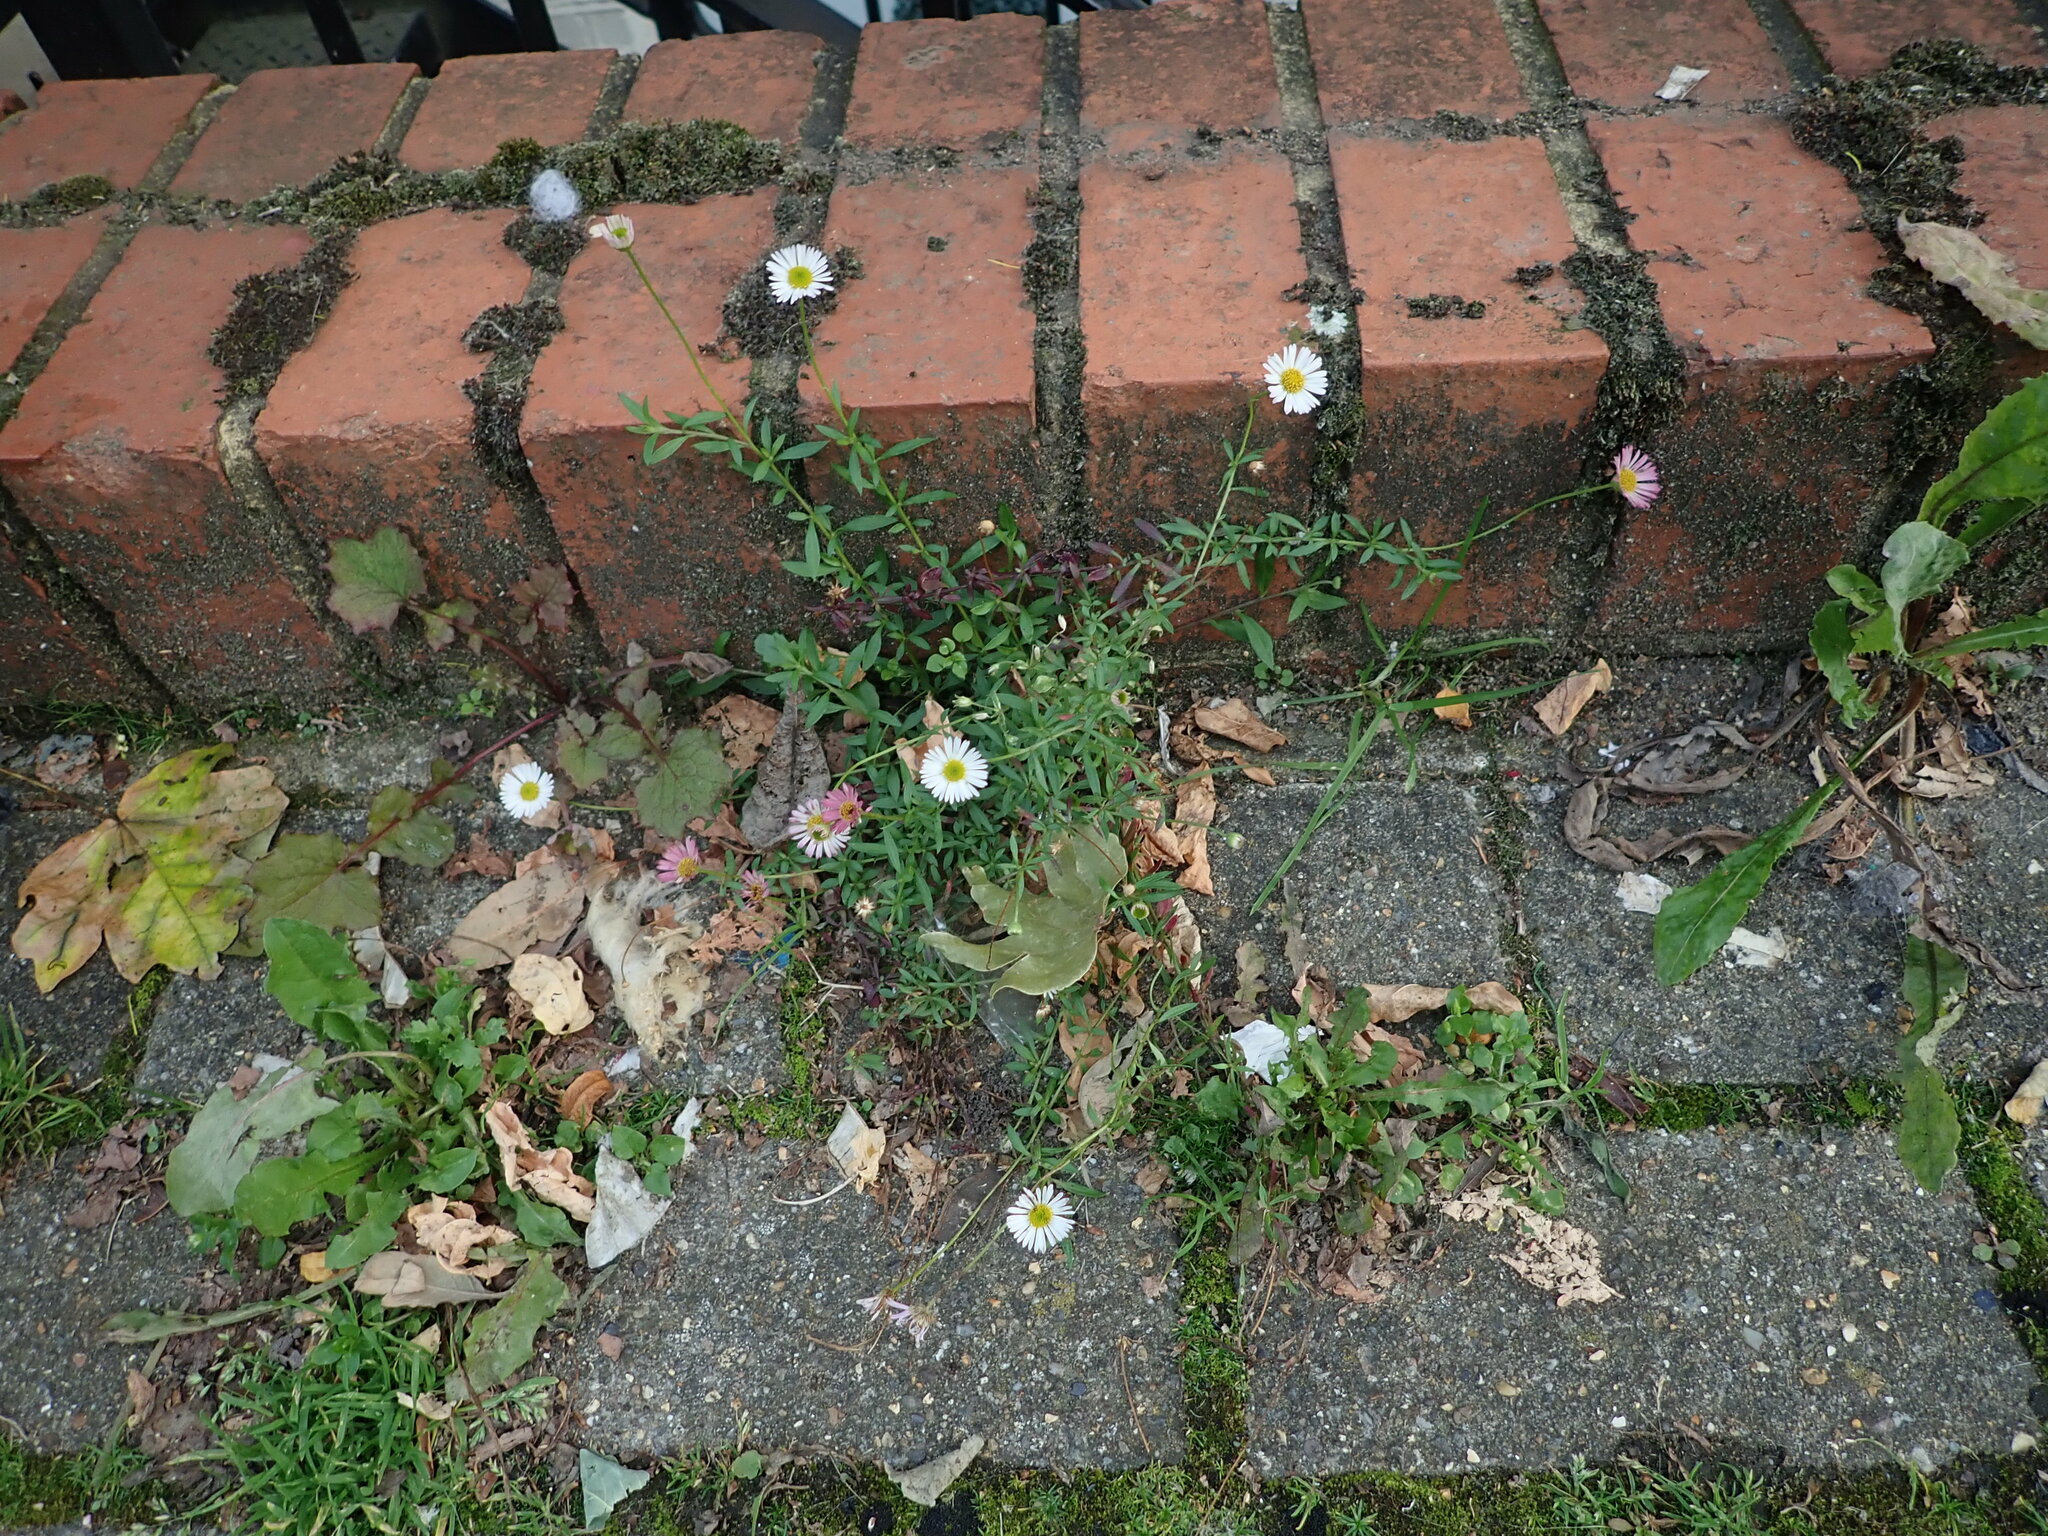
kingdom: Plantae
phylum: Tracheophyta
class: Magnoliopsida
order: Asterales
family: Asteraceae
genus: Erigeron
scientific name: Erigeron karvinskianus
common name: Mexican fleabane
